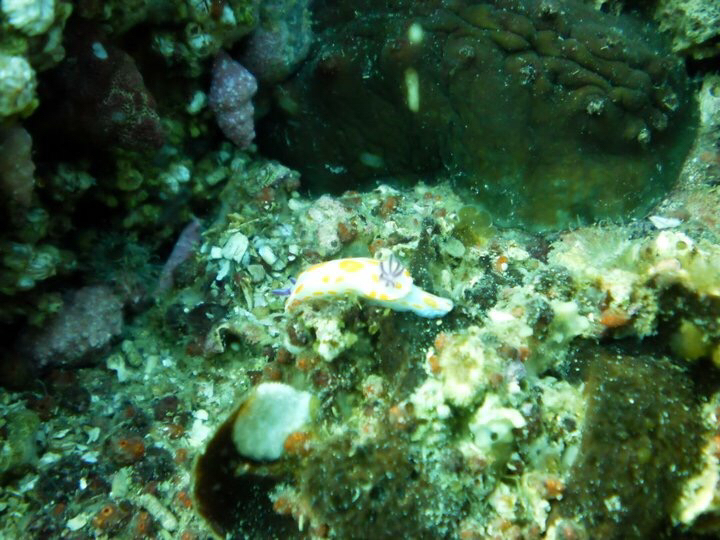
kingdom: Animalia
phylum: Mollusca
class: Gastropoda
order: Nudibranchia
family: Chromodorididae
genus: Ceratosoma
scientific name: Ceratosoma amoenum
